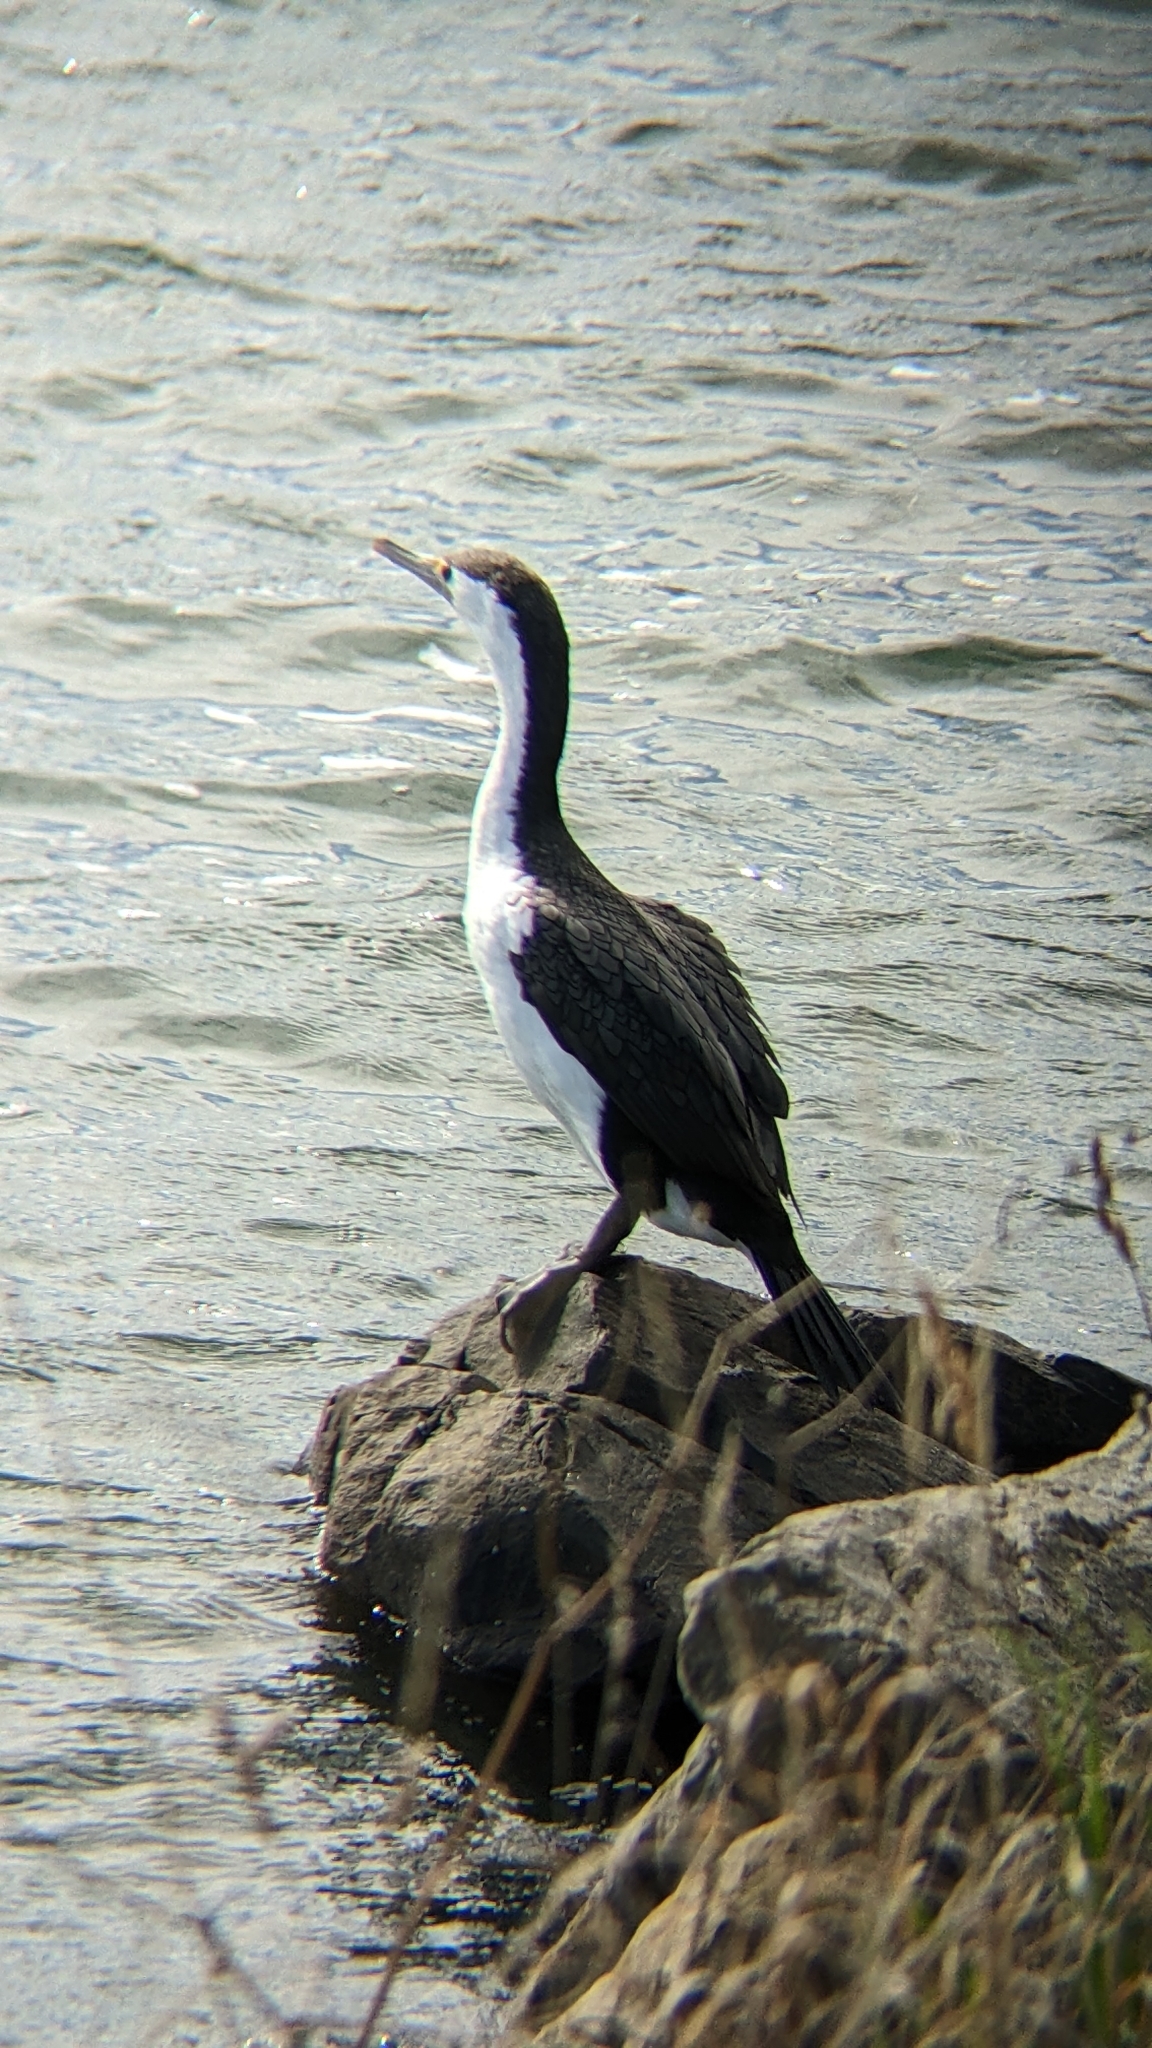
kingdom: Animalia
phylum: Chordata
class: Aves
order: Suliformes
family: Phalacrocoracidae
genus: Phalacrocorax
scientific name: Phalacrocorax varius
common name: Pied cormorant
